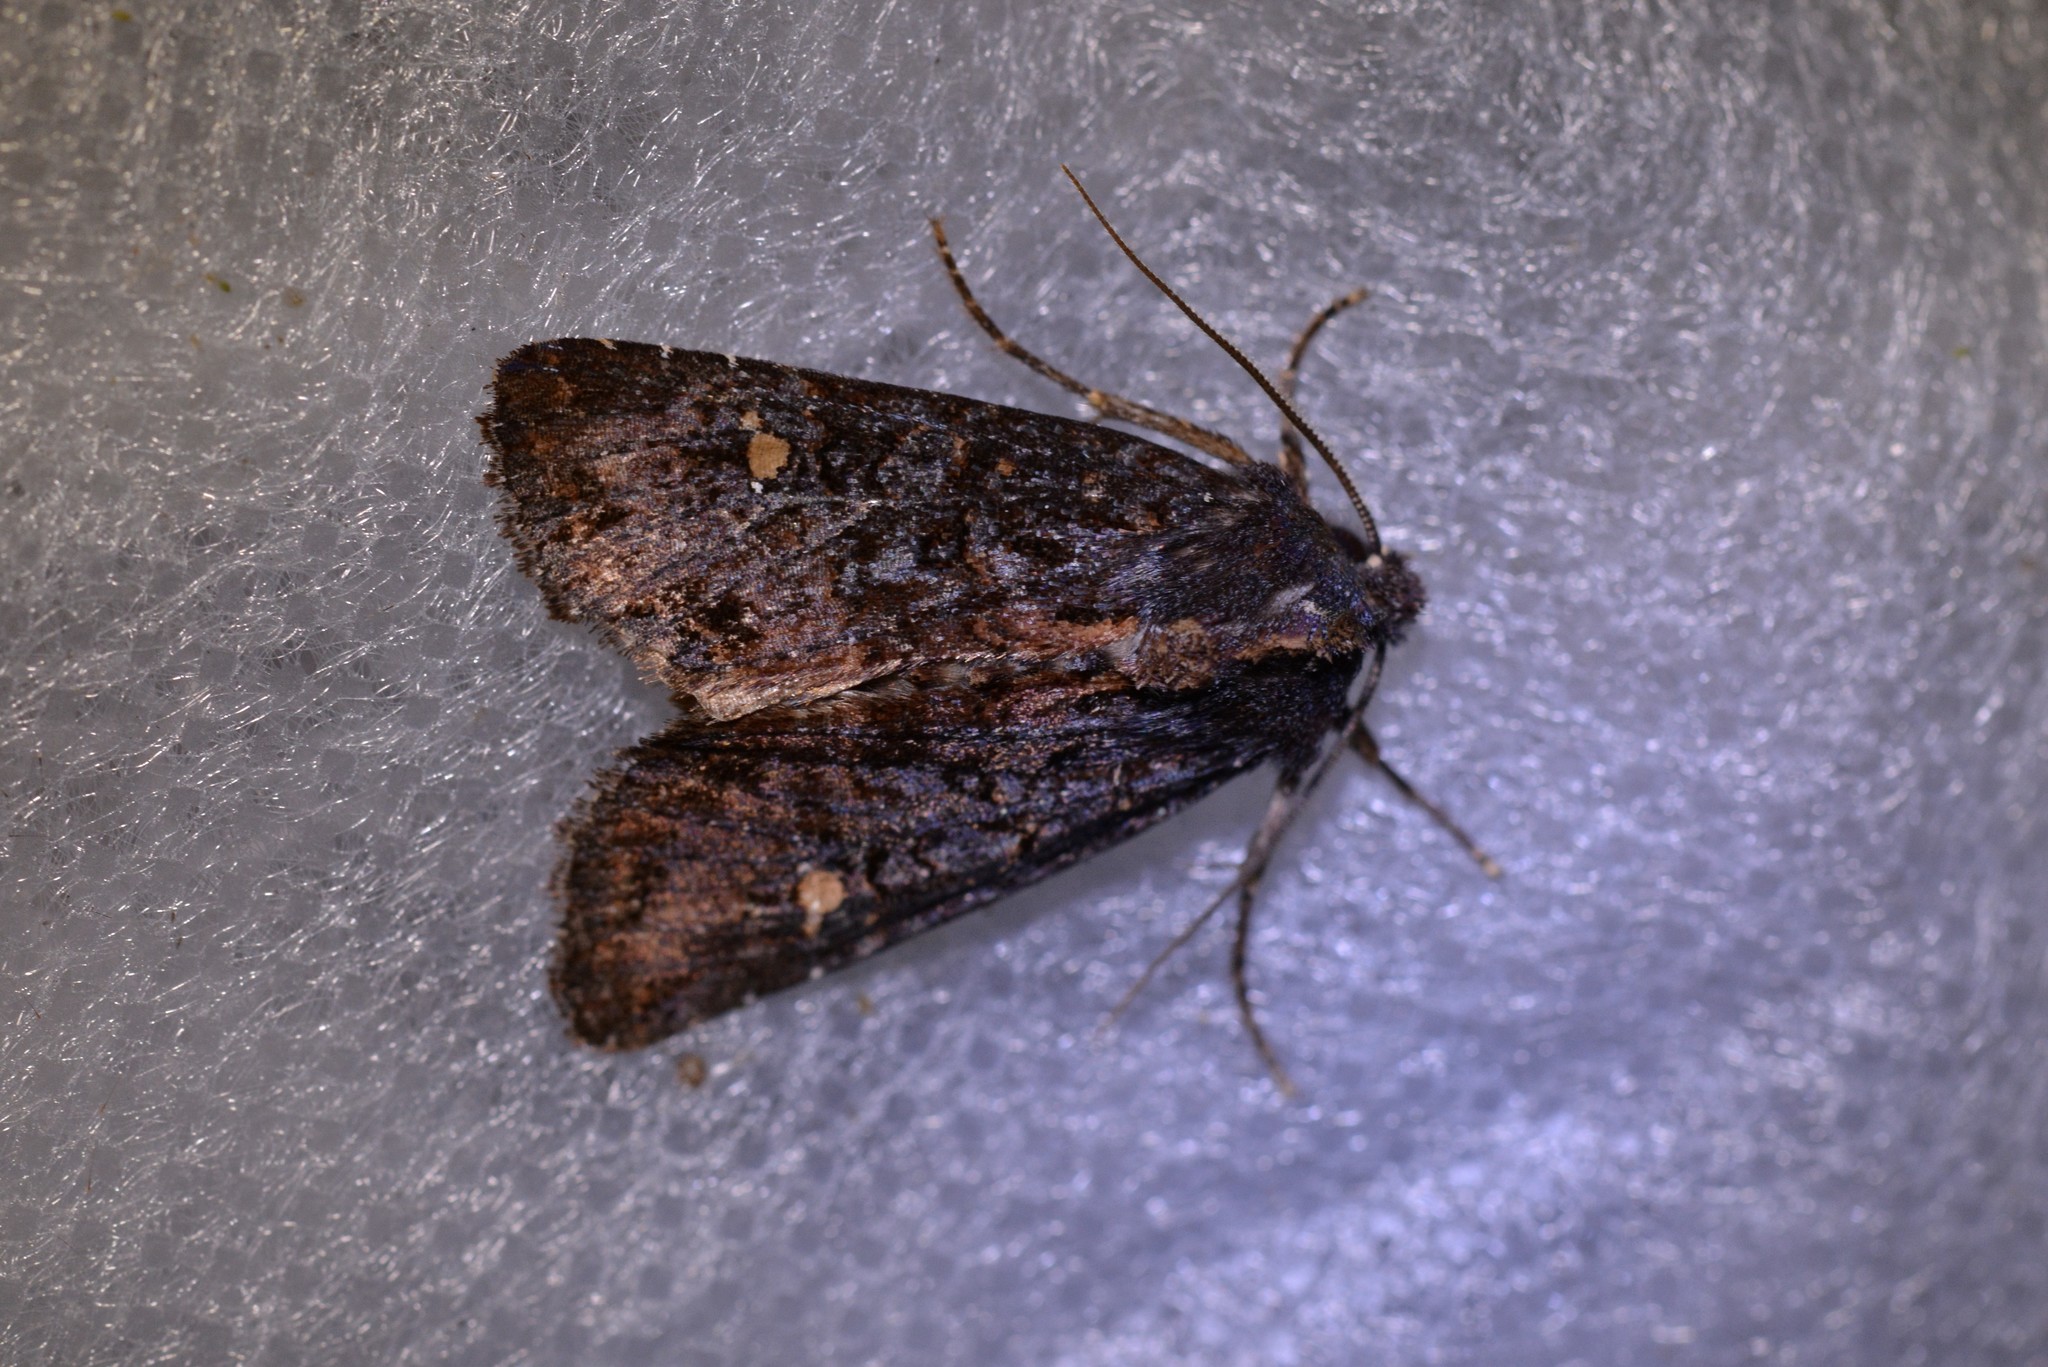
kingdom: Animalia
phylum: Arthropoda
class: Insecta
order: Lepidoptera
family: Noctuidae
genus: Meterana
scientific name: Meterana vitiosa
